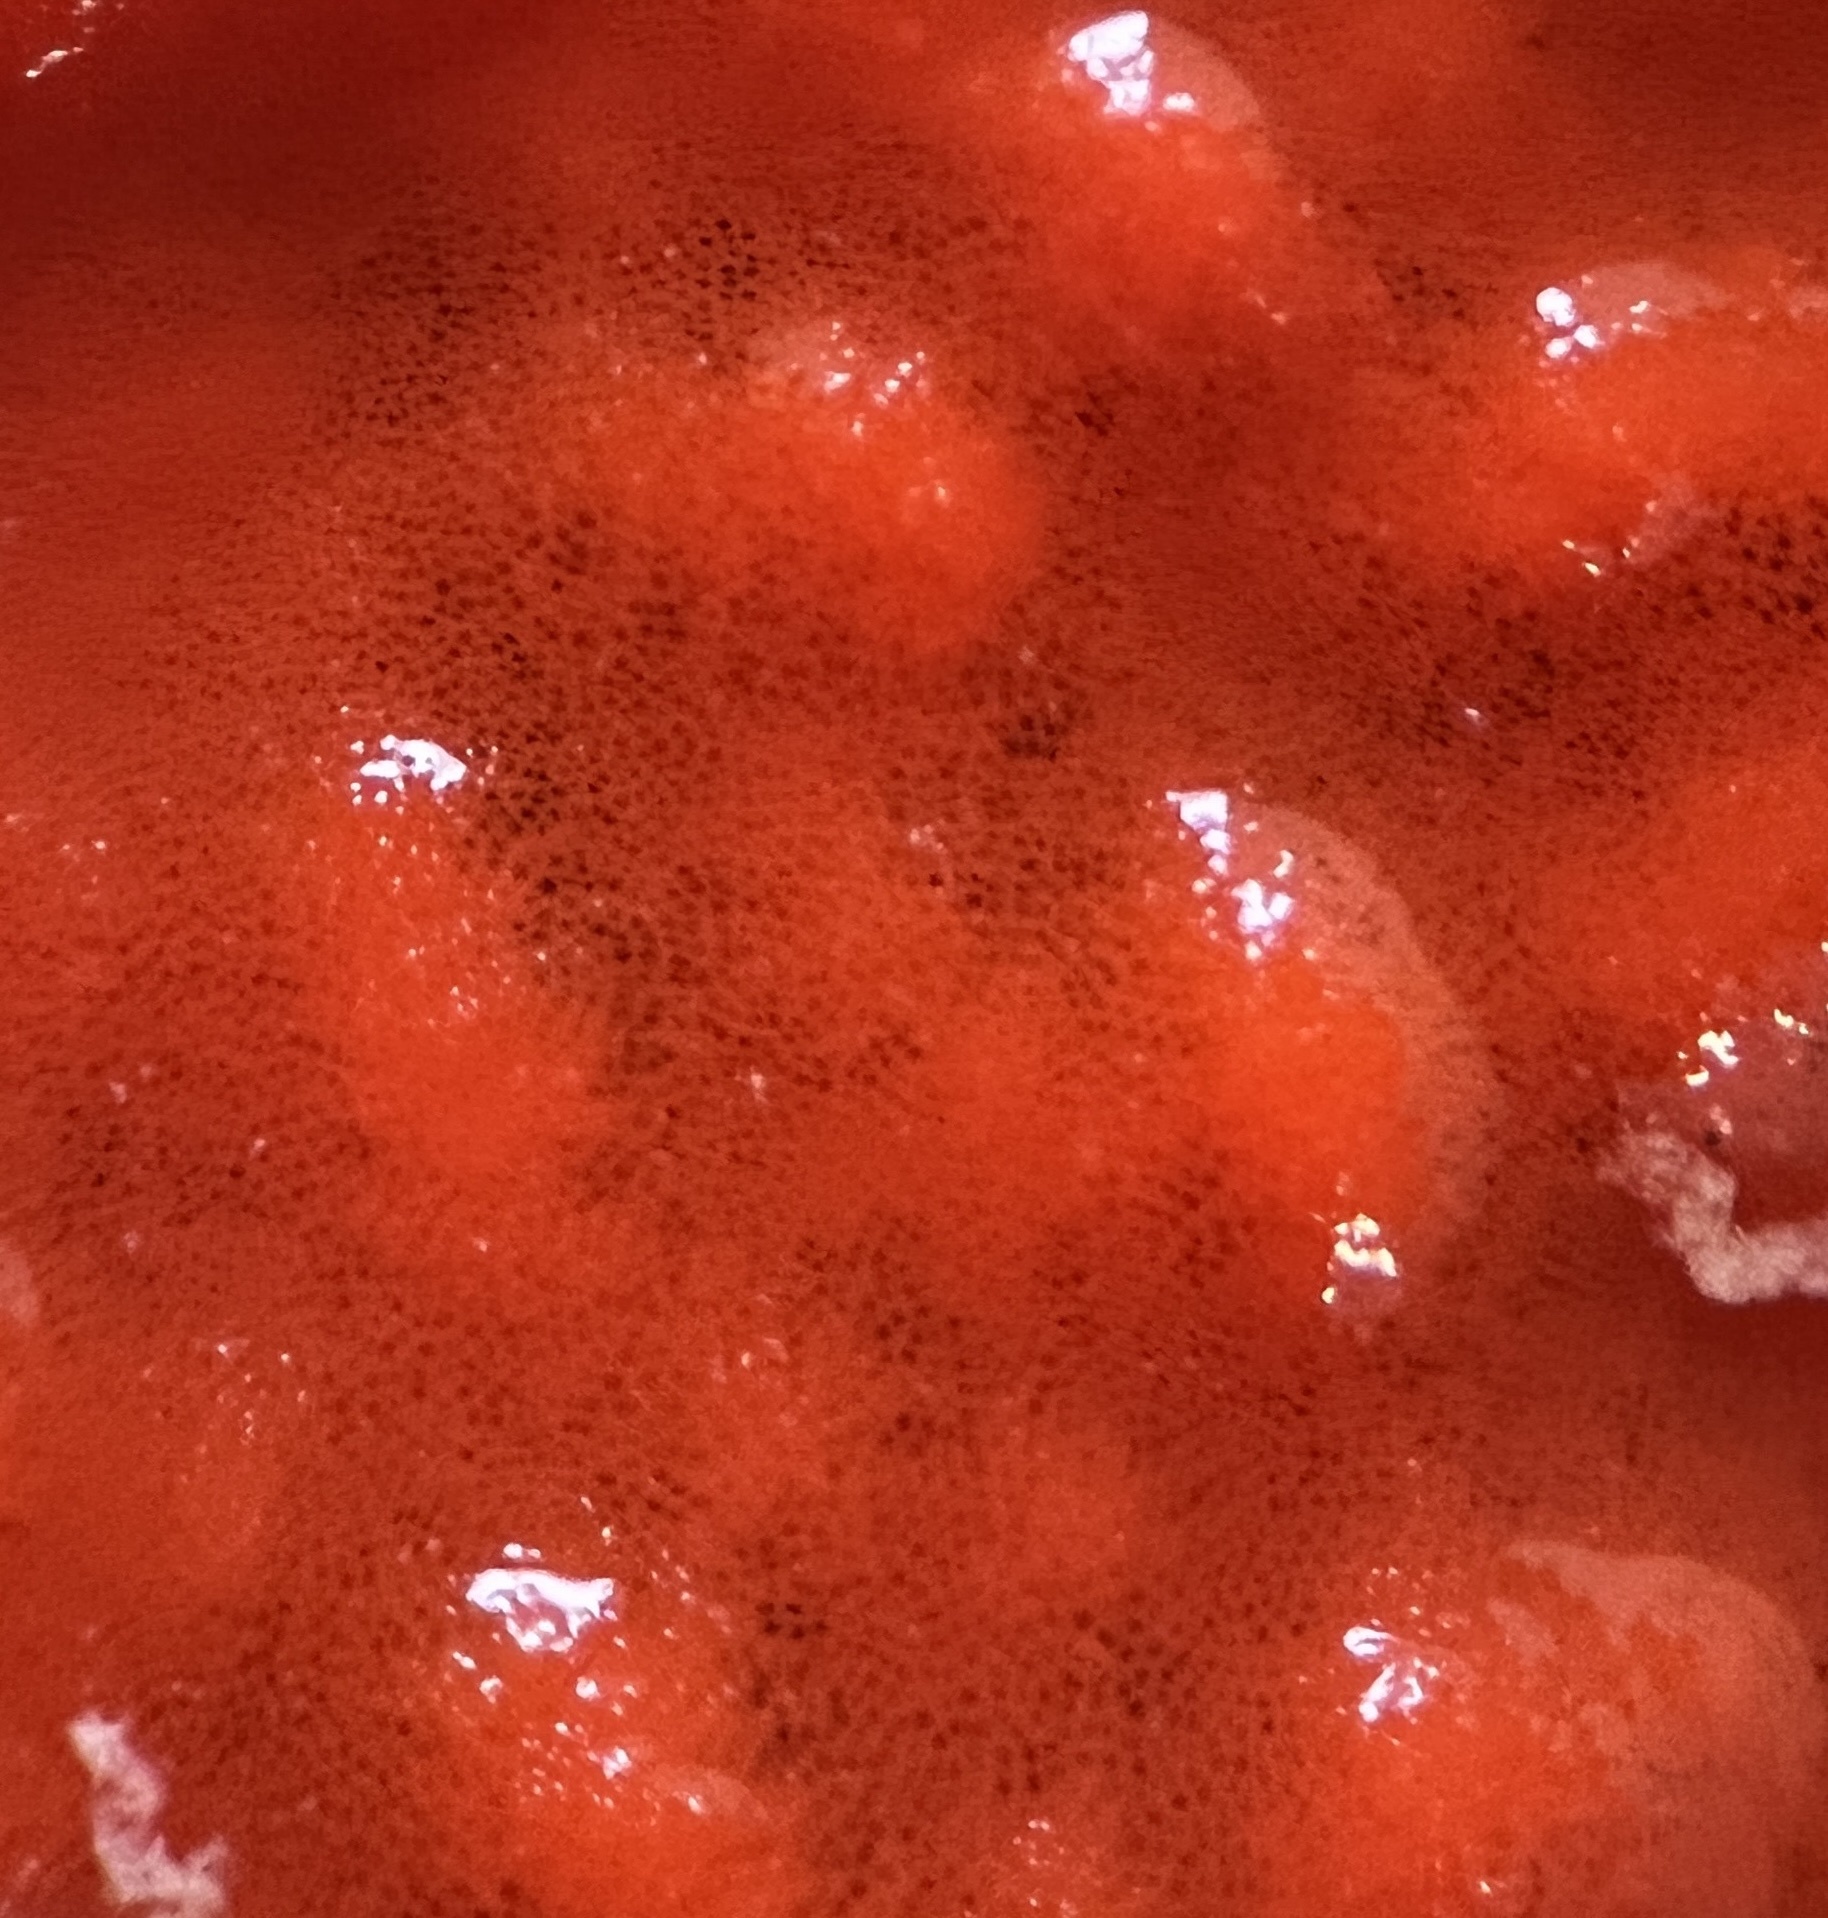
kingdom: Animalia
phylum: Porifera
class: Demospongiae
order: Poecilosclerida
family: Tedaniidae
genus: Tedania
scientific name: Tedania ignis
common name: Sponge
